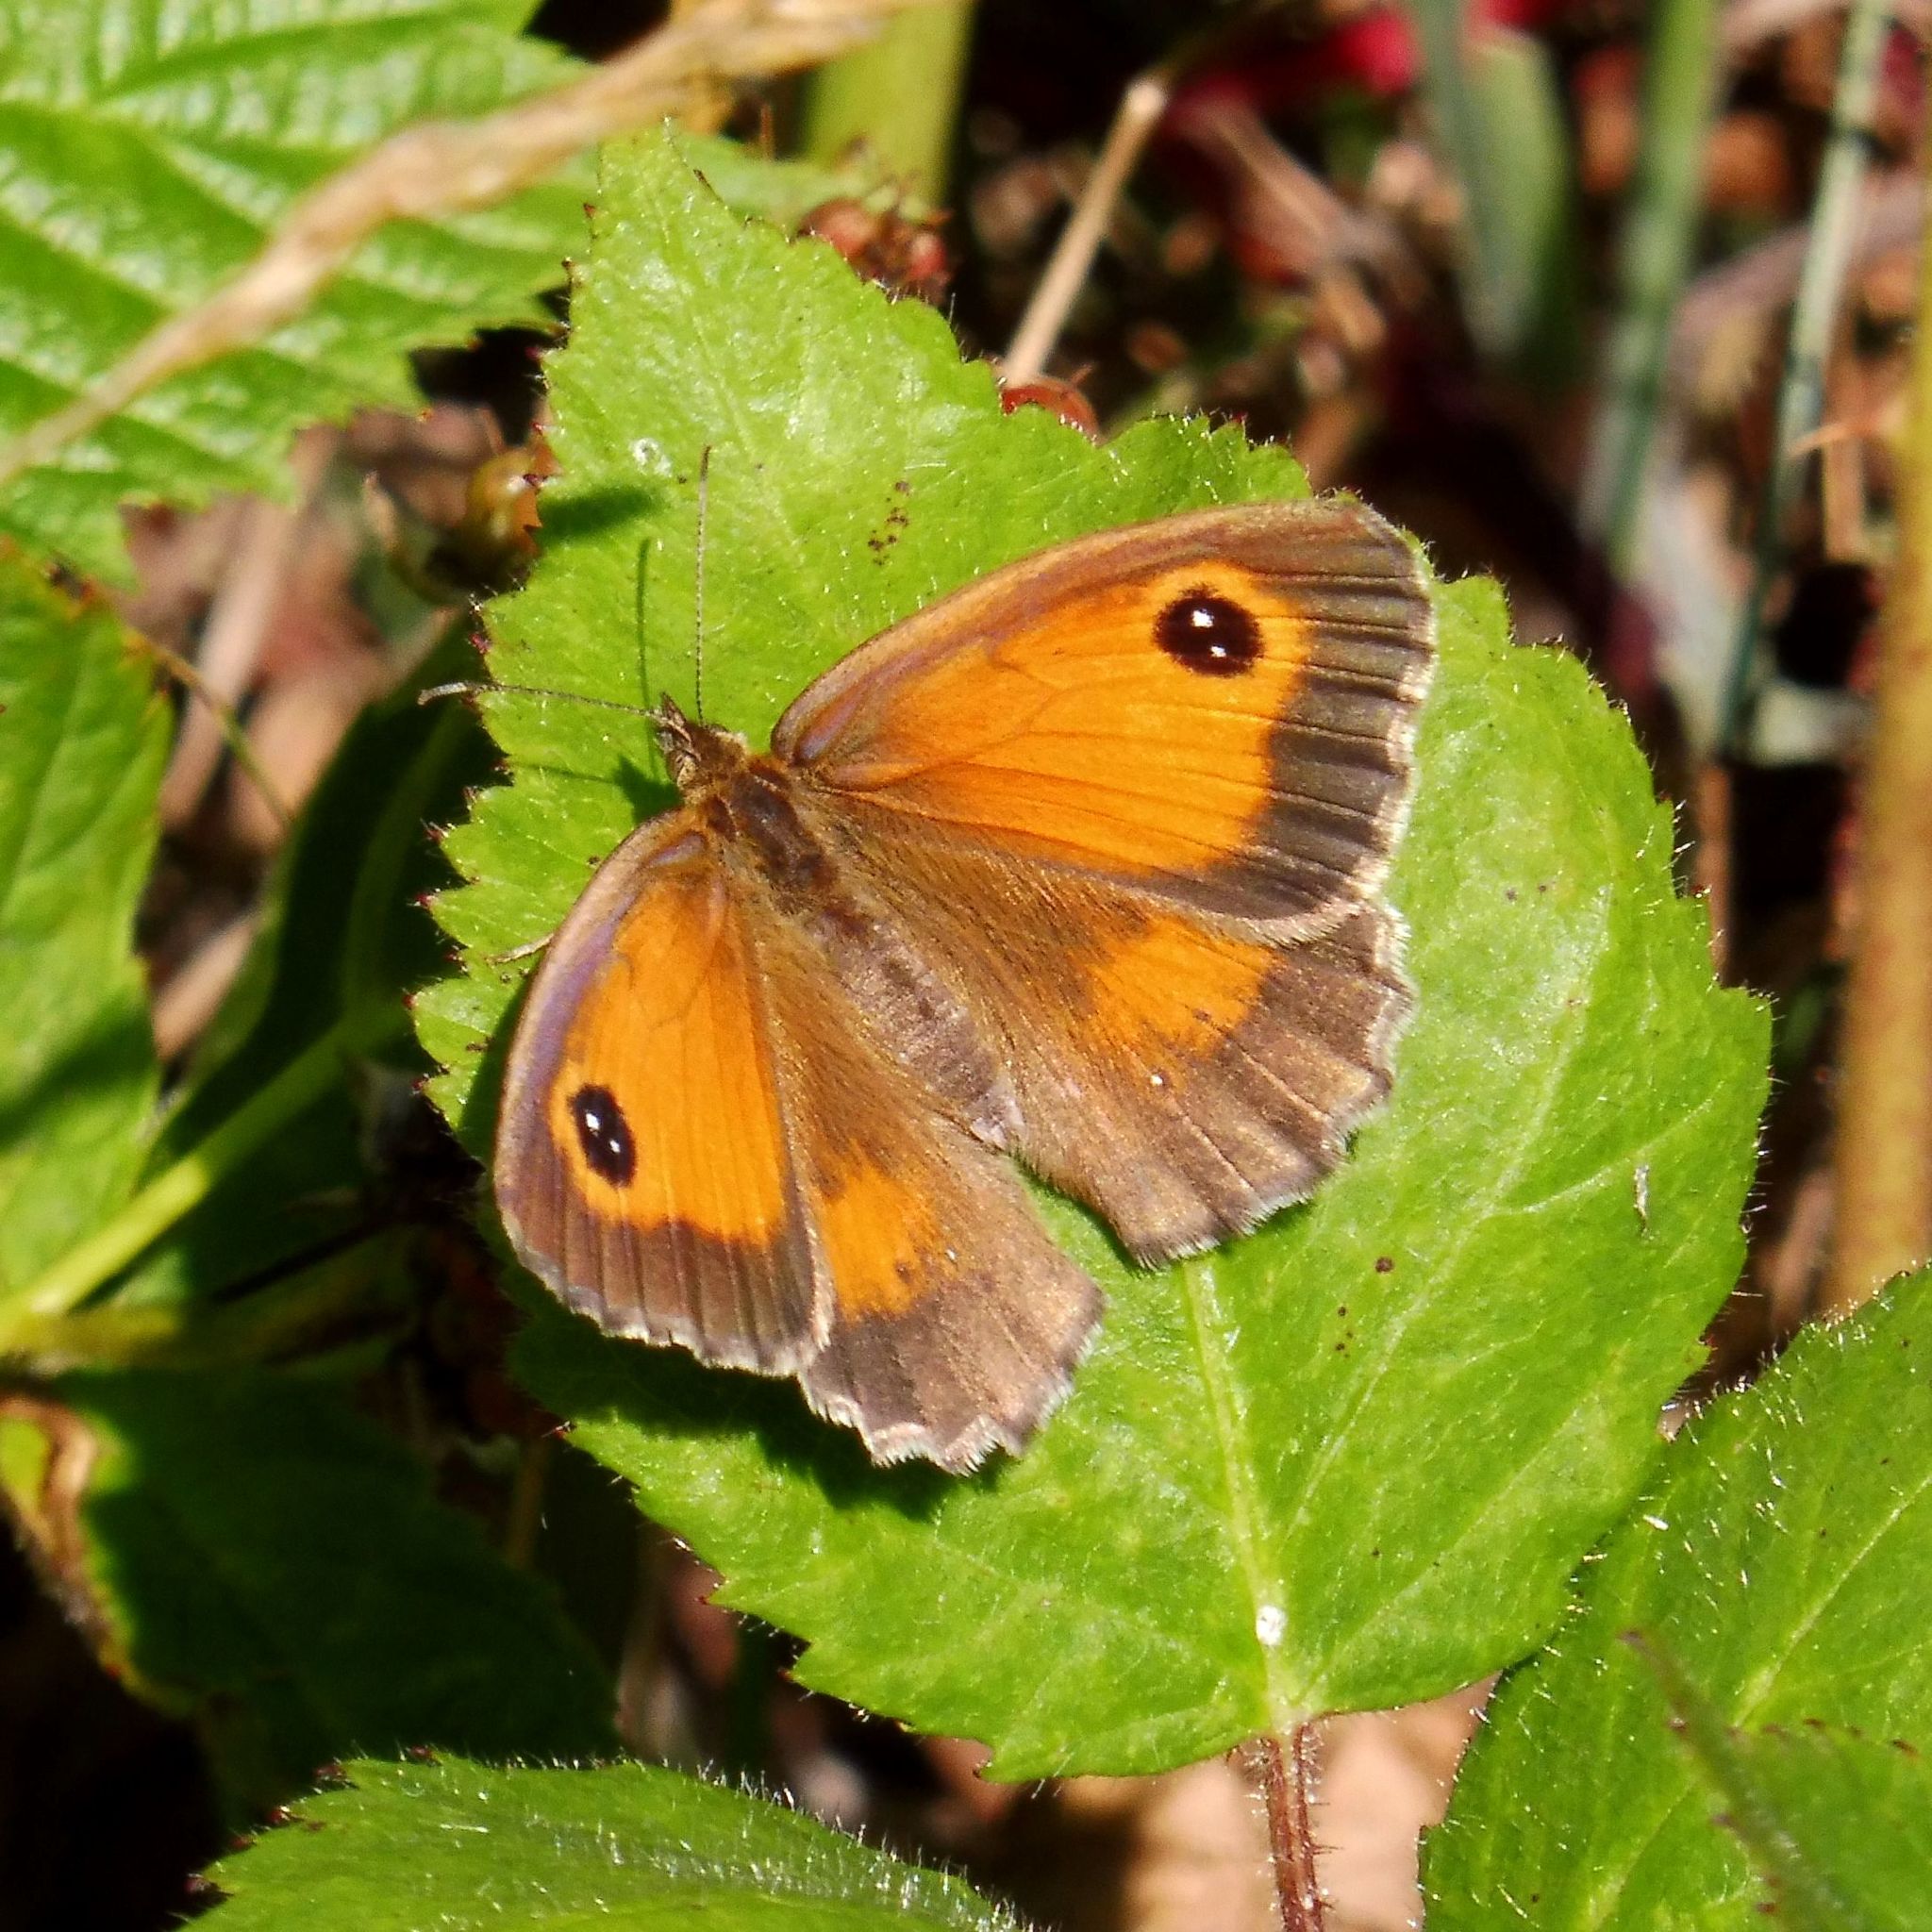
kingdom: Animalia
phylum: Arthropoda
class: Insecta
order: Lepidoptera
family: Nymphalidae
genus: Pyronia
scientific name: Pyronia tithonus
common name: Gatekeeper
